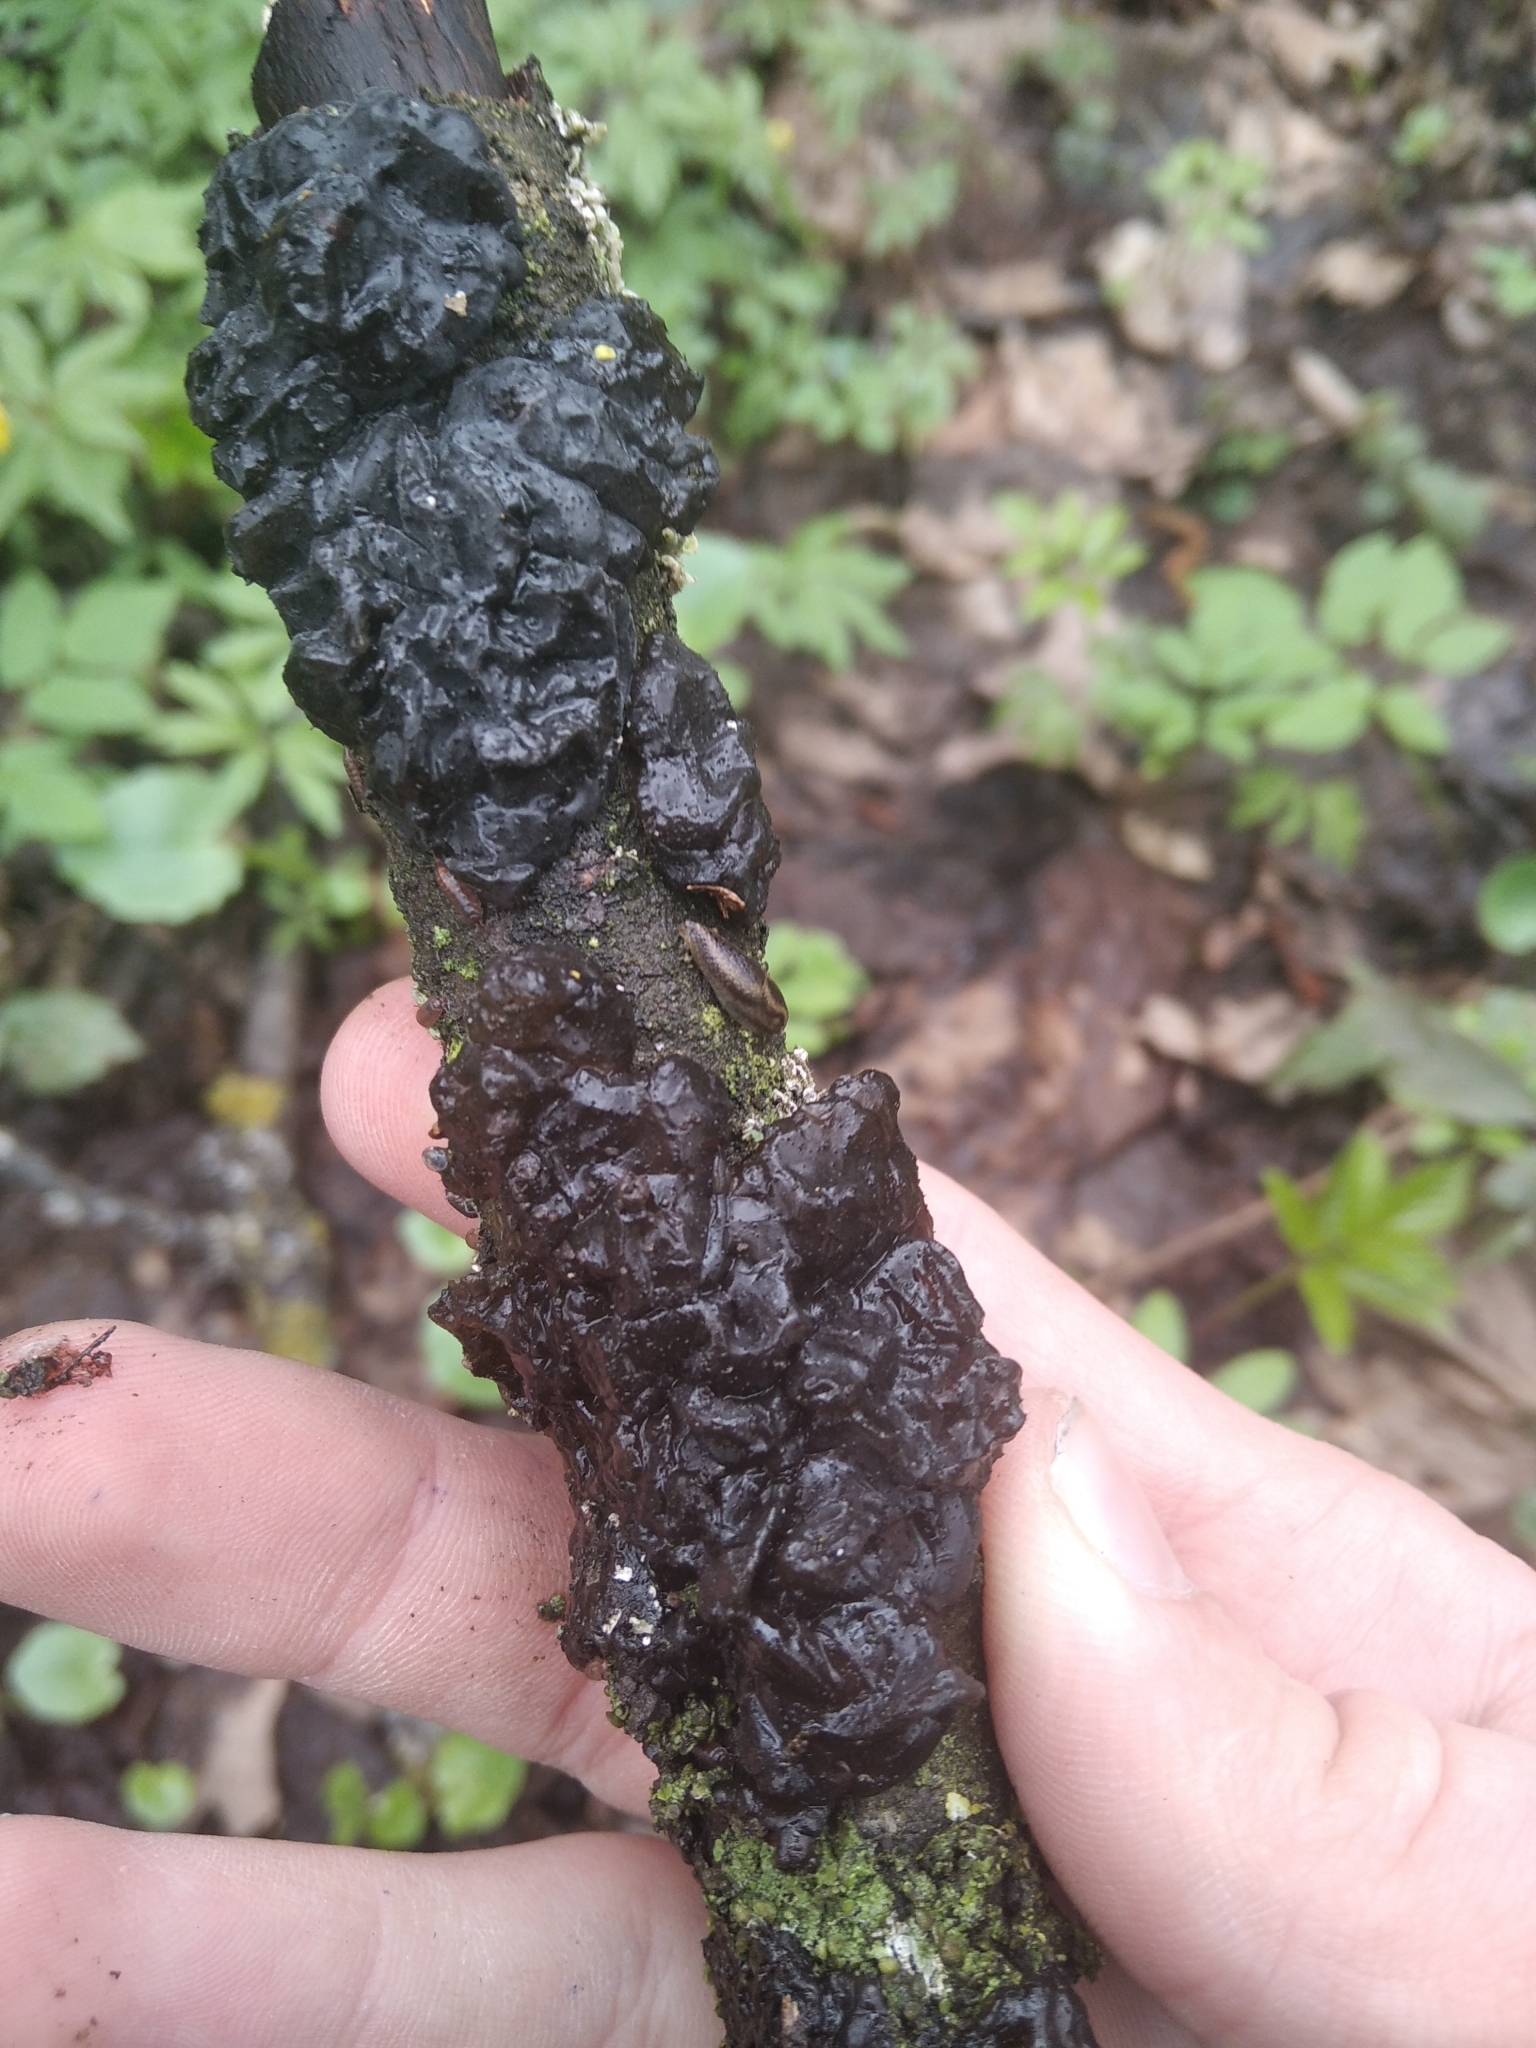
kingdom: Fungi
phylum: Basidiomycota
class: Agaricomycetes
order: Auriculariales
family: Auriculariaceae
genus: Exidia
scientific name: Exidia glandulosa
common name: Witches' butter
